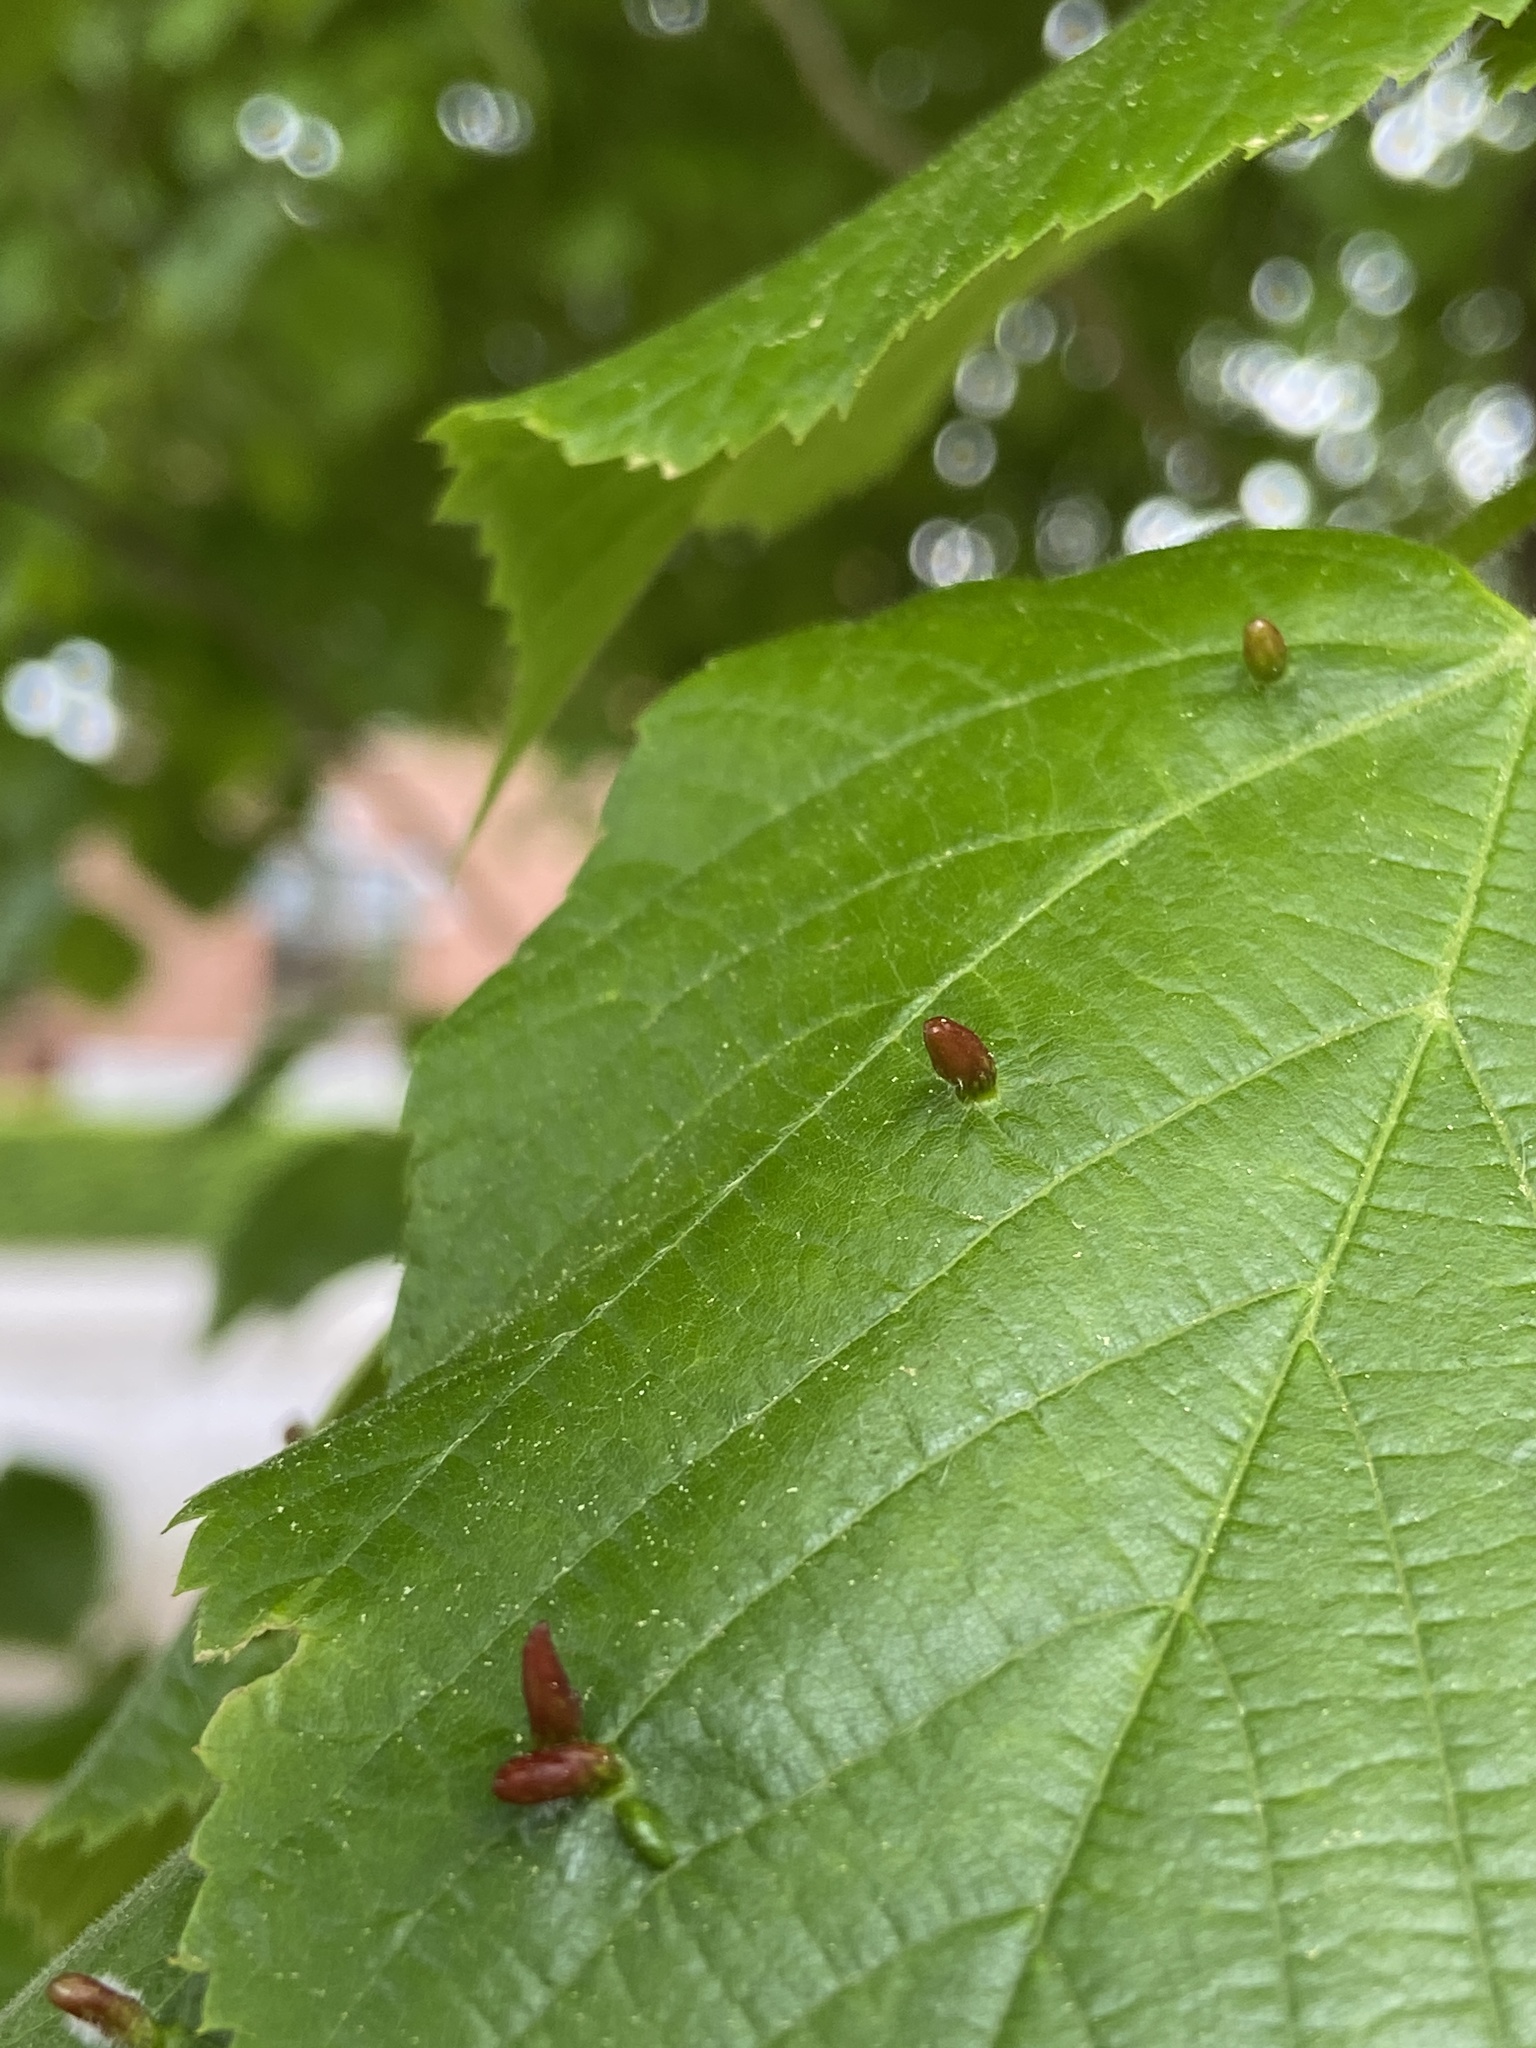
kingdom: Animalia
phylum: Arthropoda
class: Arachnida
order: Trombidiformes
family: Eriophyidae
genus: Eriophyes
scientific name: Eriophyes tiliae
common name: Red nail gall mite
